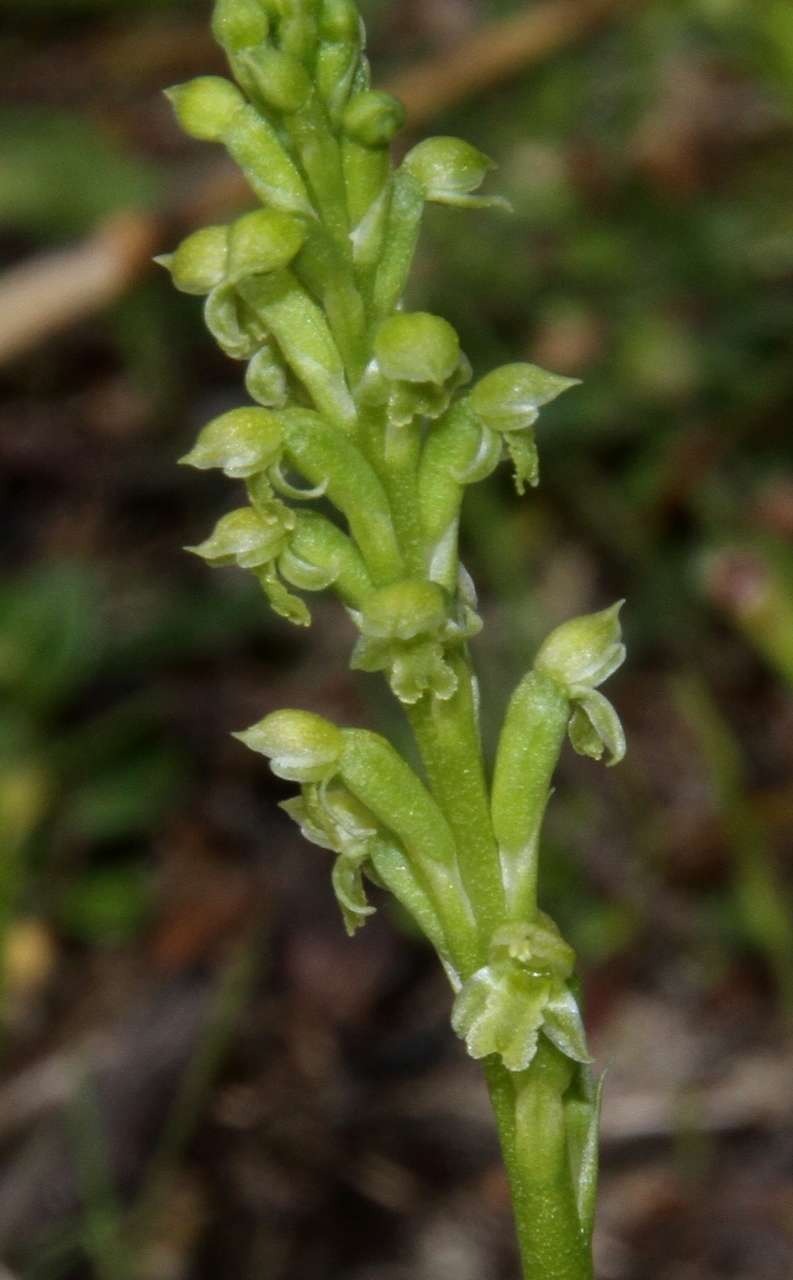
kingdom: Plantae
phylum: Tracheophyta
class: Liliopsida
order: Asparagales
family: Orchidaceae
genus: Microtis
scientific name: Microtis arenaria
